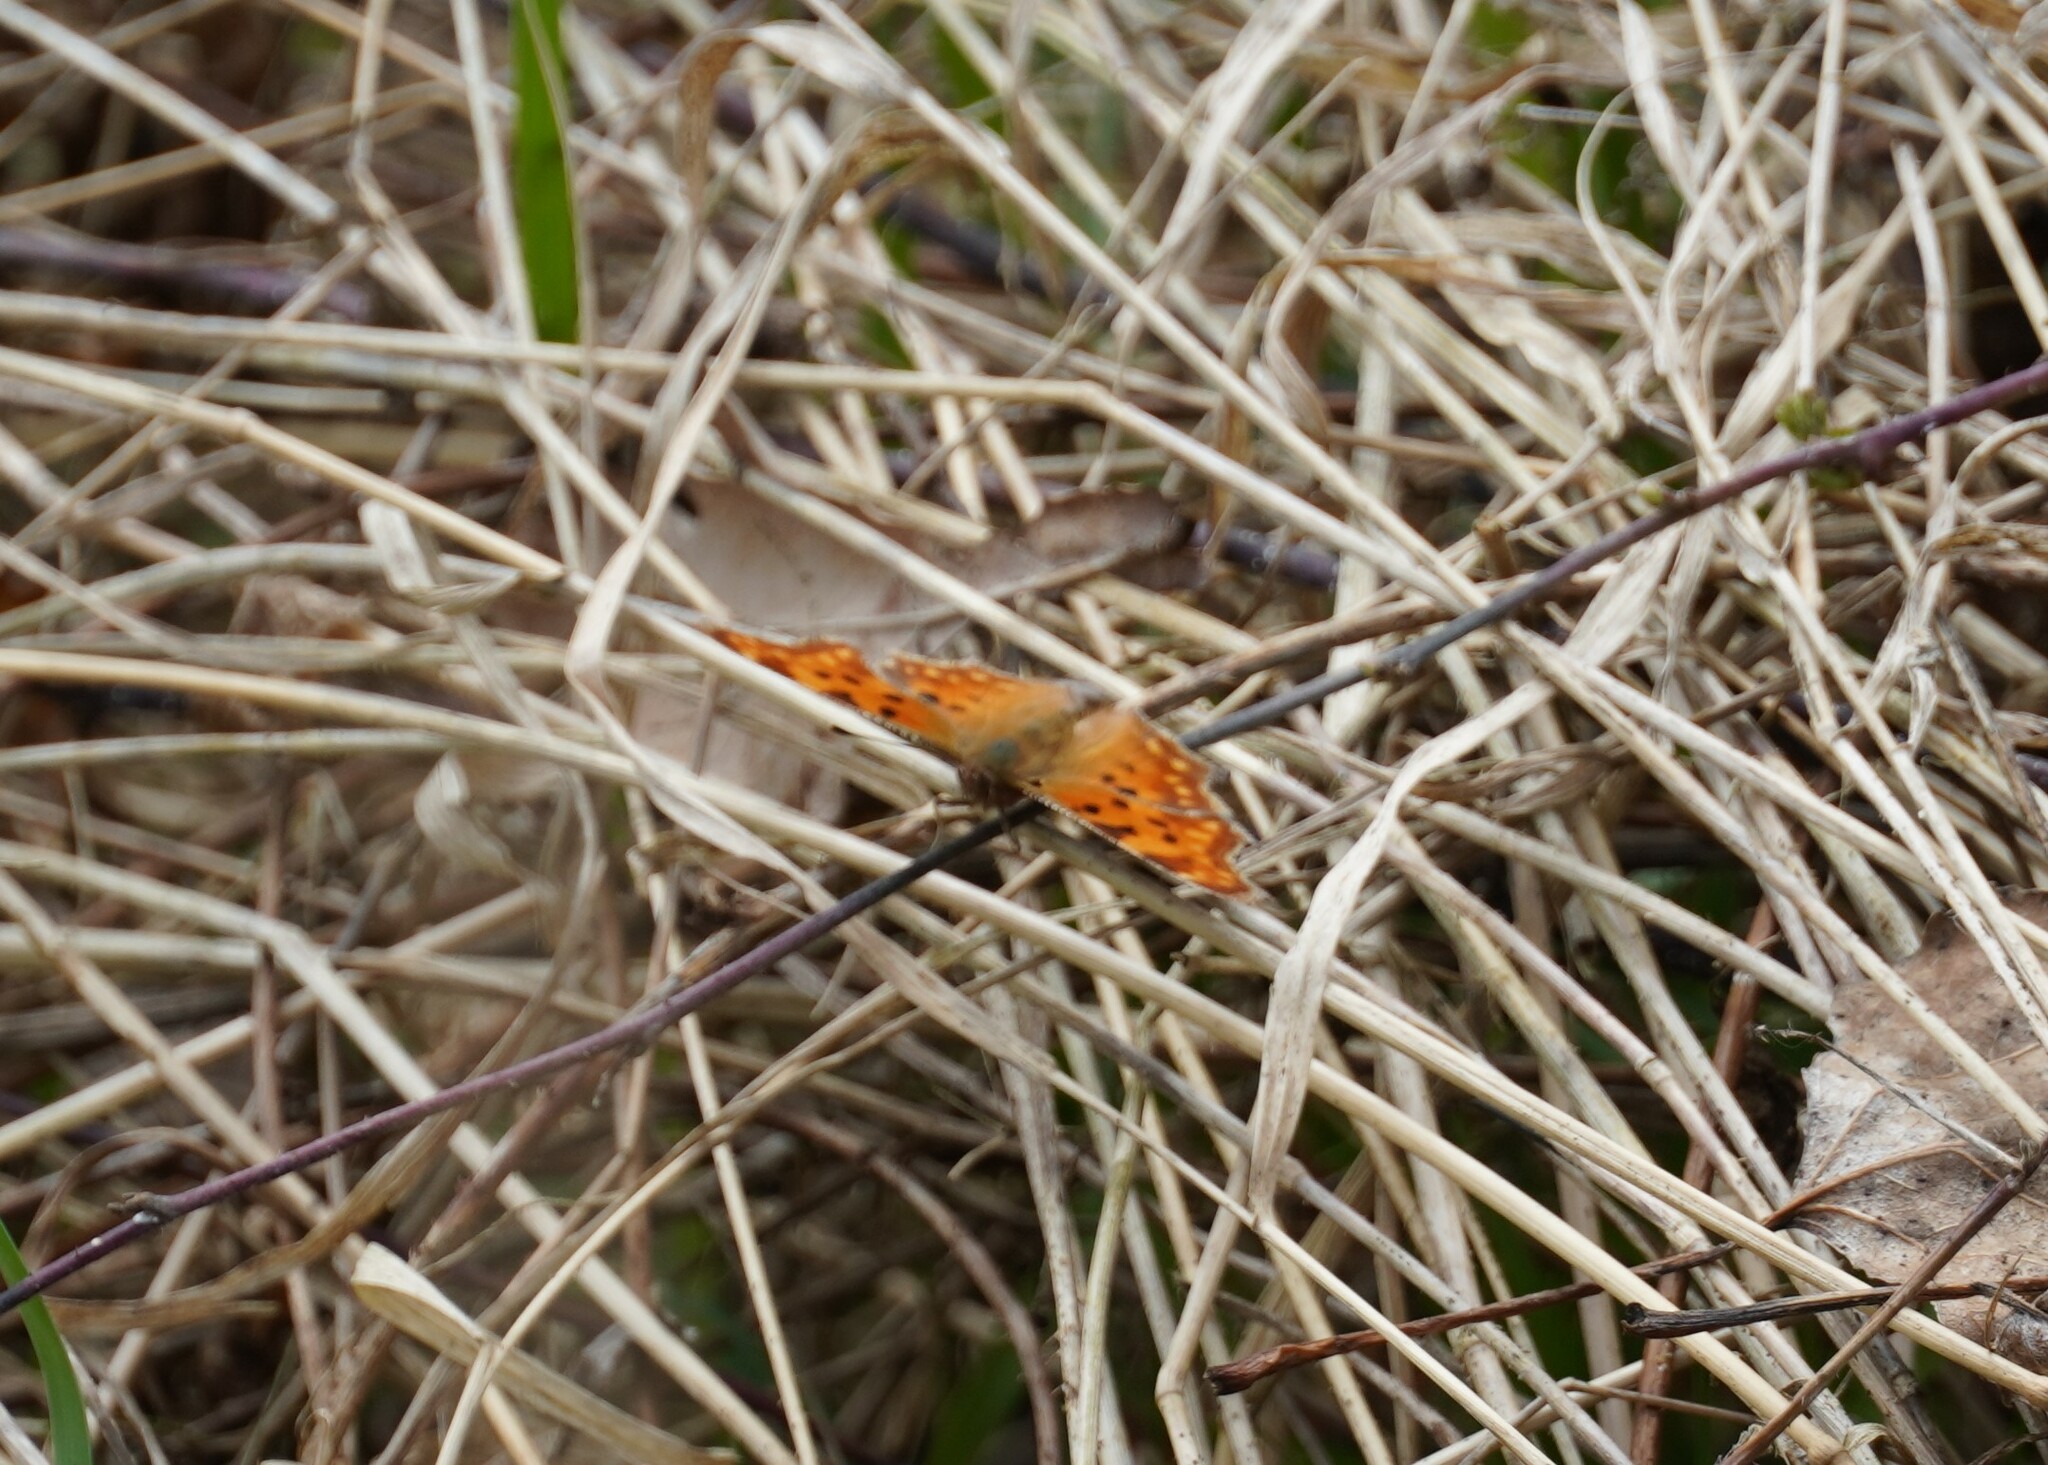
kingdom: Animalia
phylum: Arthropoda
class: Insecta
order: Lepidoptera
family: Nymphalidae
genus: Polygonia
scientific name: Polygonia c-album
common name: Comma
